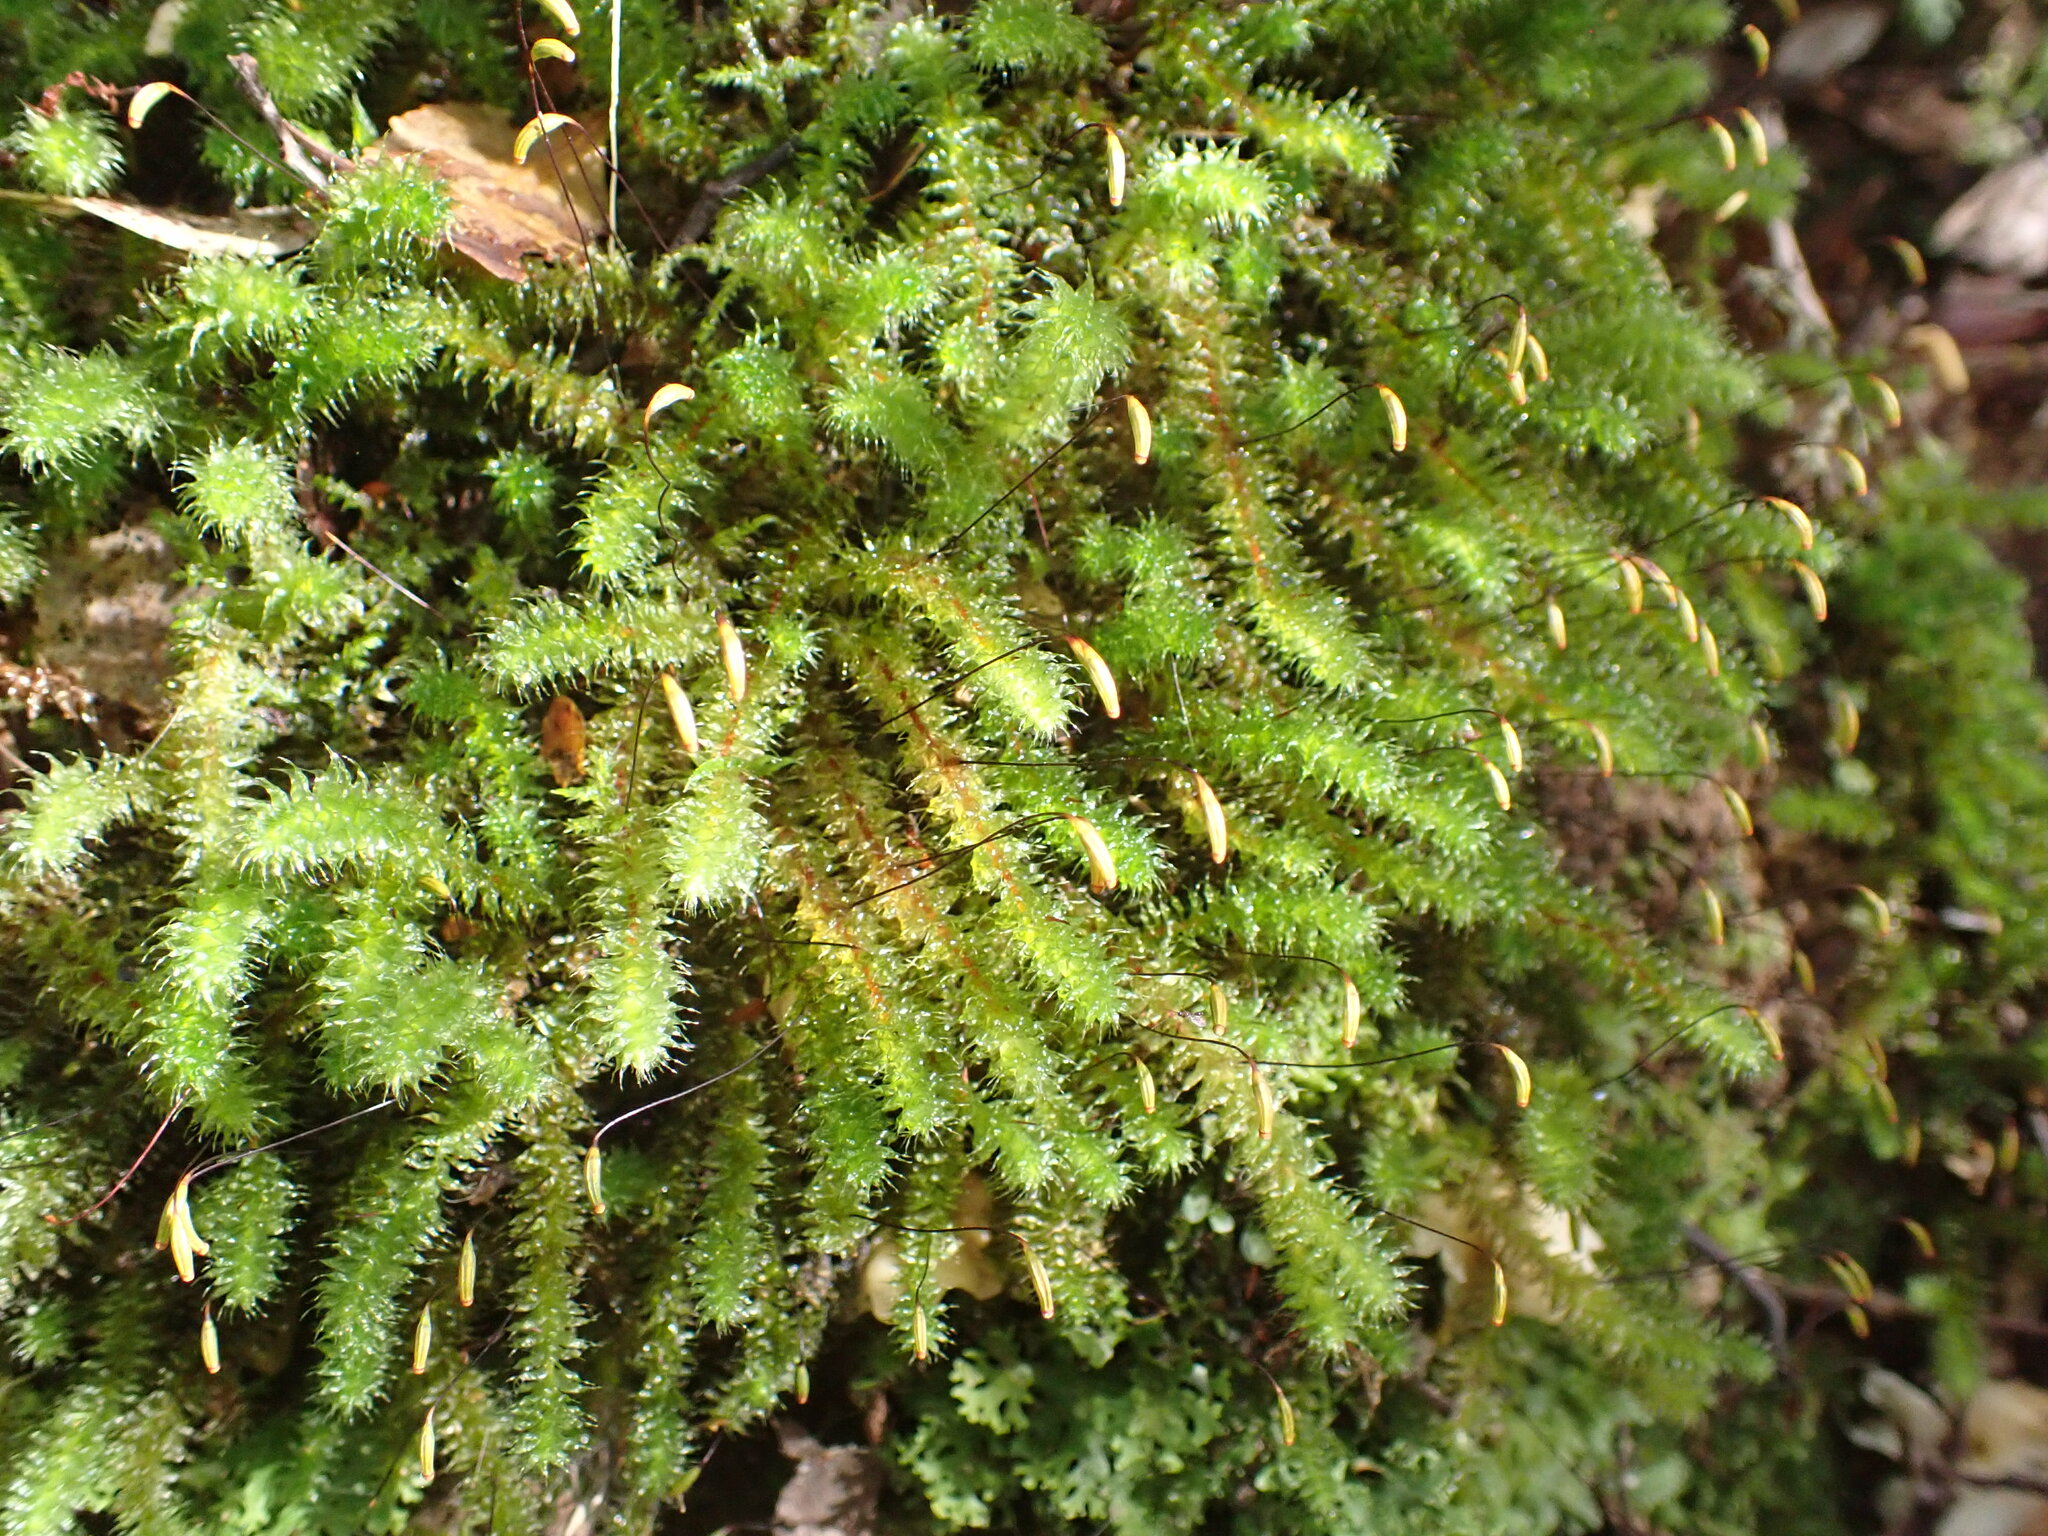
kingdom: Plantae
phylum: Bryophyta
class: Bryopsida
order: Ptychomniales
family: Ptychomniaceae
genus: Ptychomnion
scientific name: Ptychomnion aciculare
